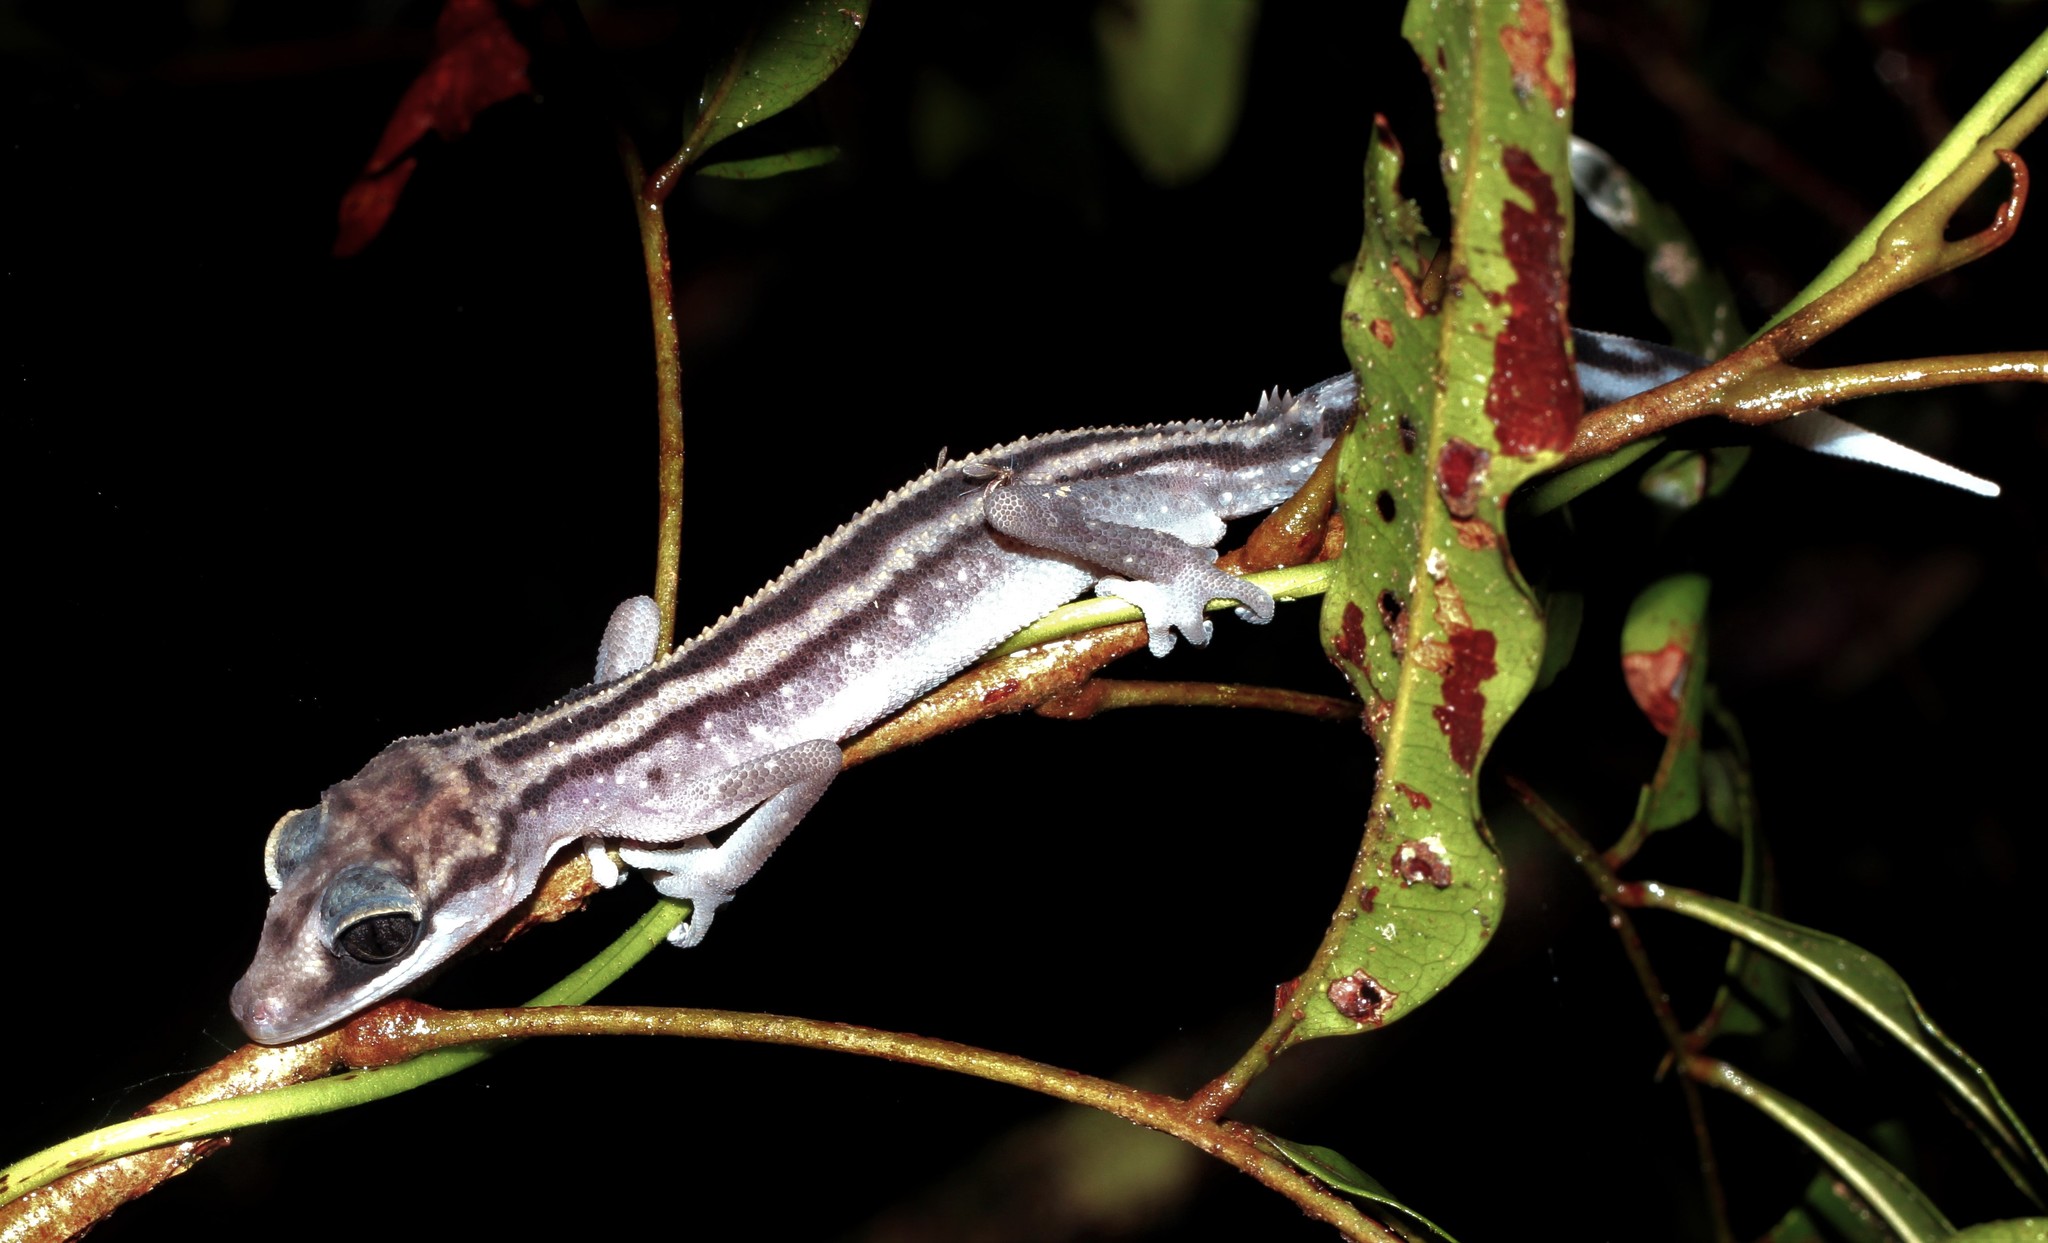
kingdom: Animalia
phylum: Chordata
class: Squamata
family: Gekkonidae
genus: Paroedura
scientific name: Paroedura gracilis
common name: Graceful madagascar ground gecko
